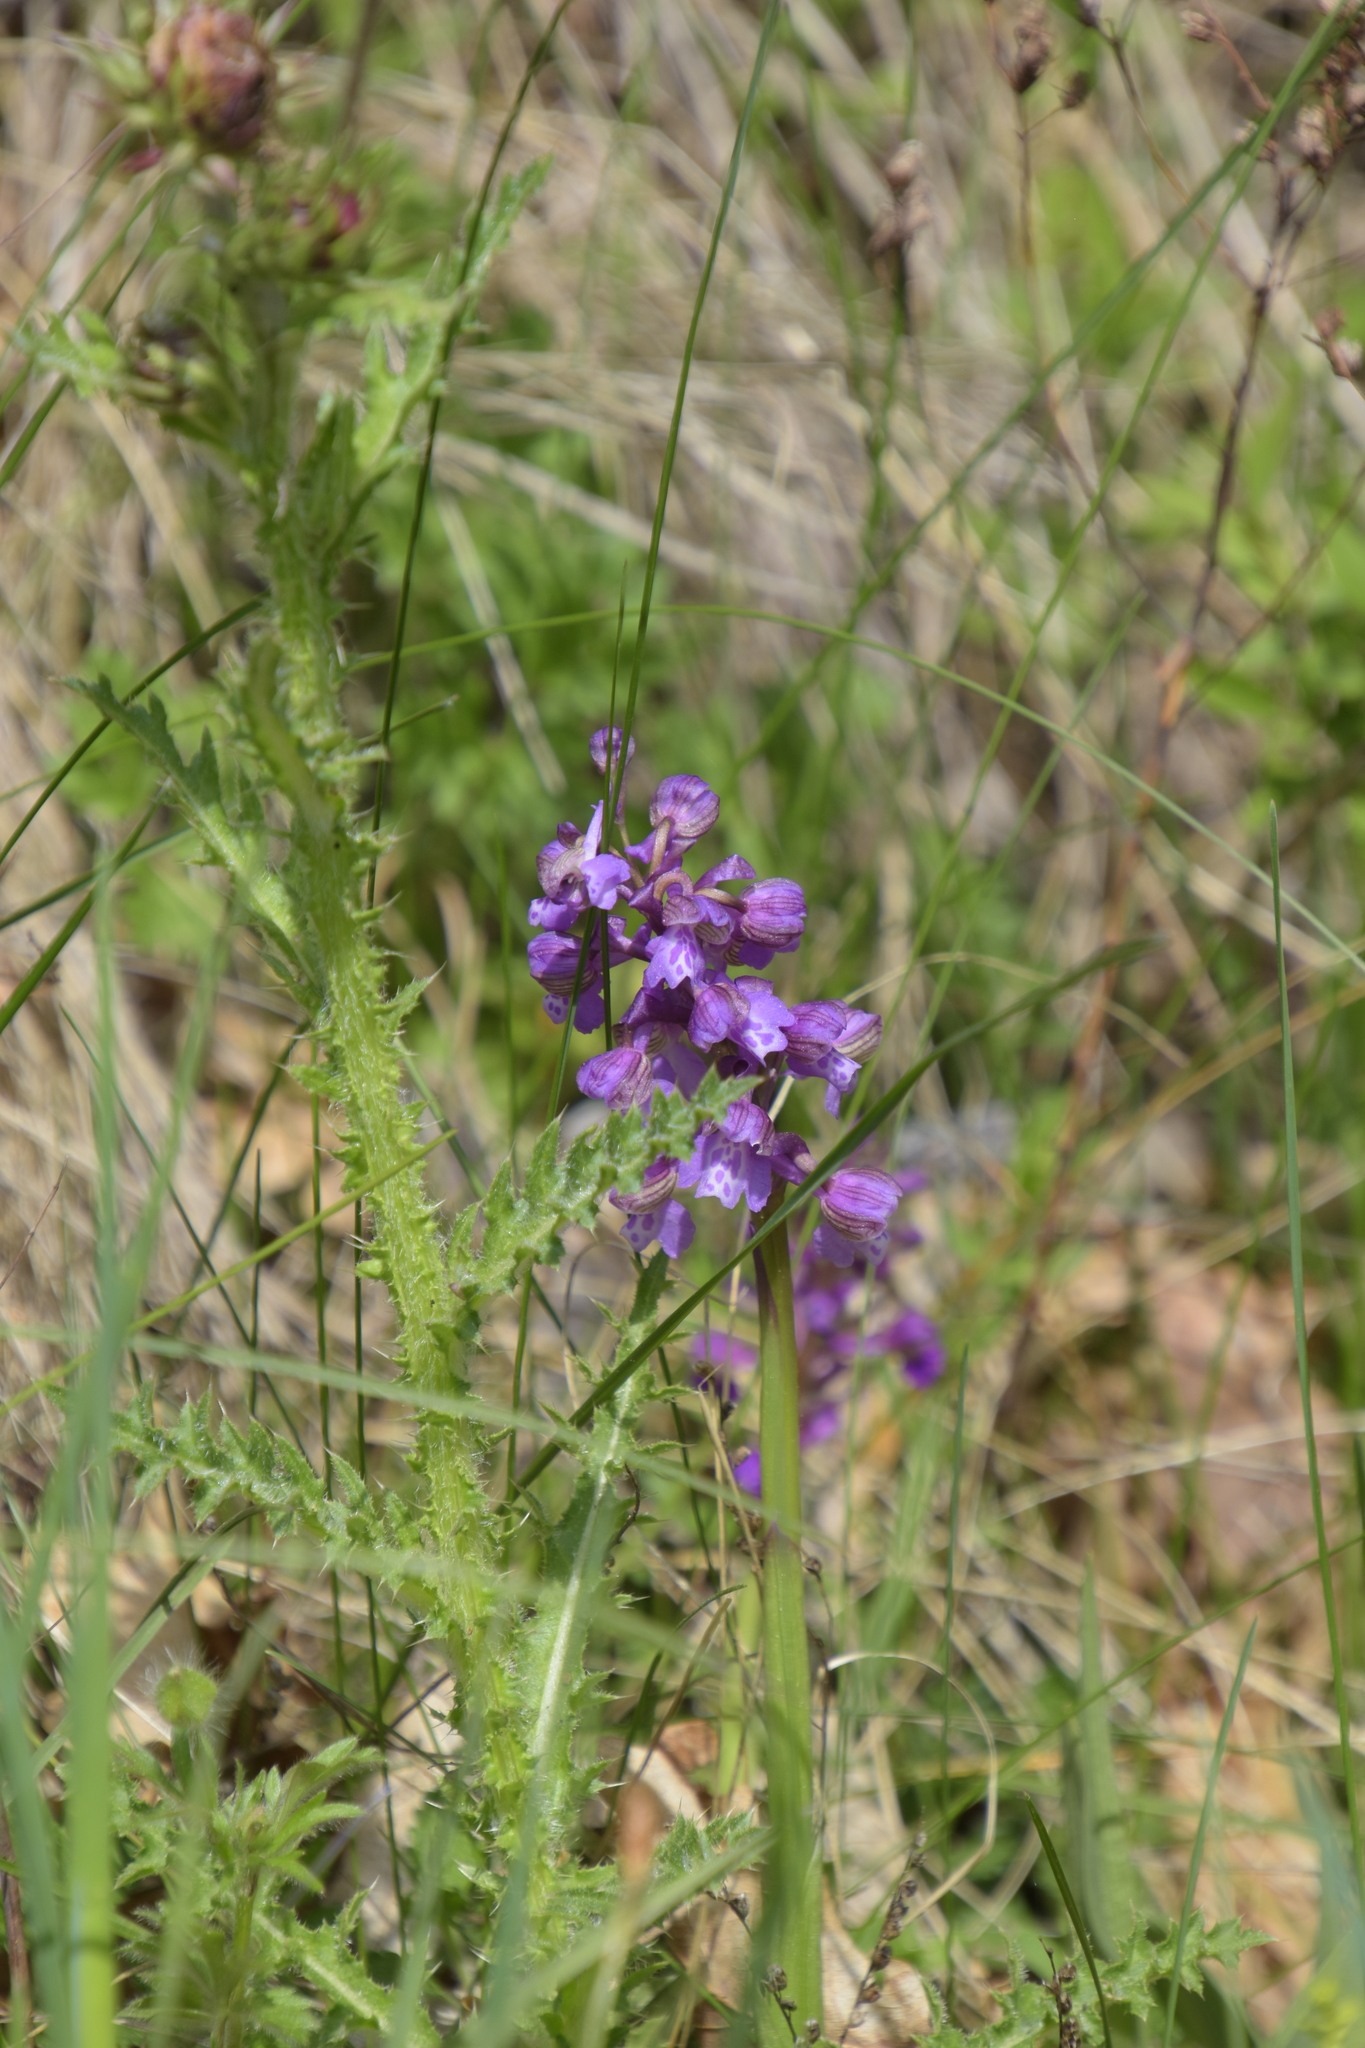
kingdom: Plantae
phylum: Tracheophyta
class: Liliopsida
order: Asparagales
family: Orchidaceae
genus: Anacamptis
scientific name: Anacamptis morio
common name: Green-winged orchid
